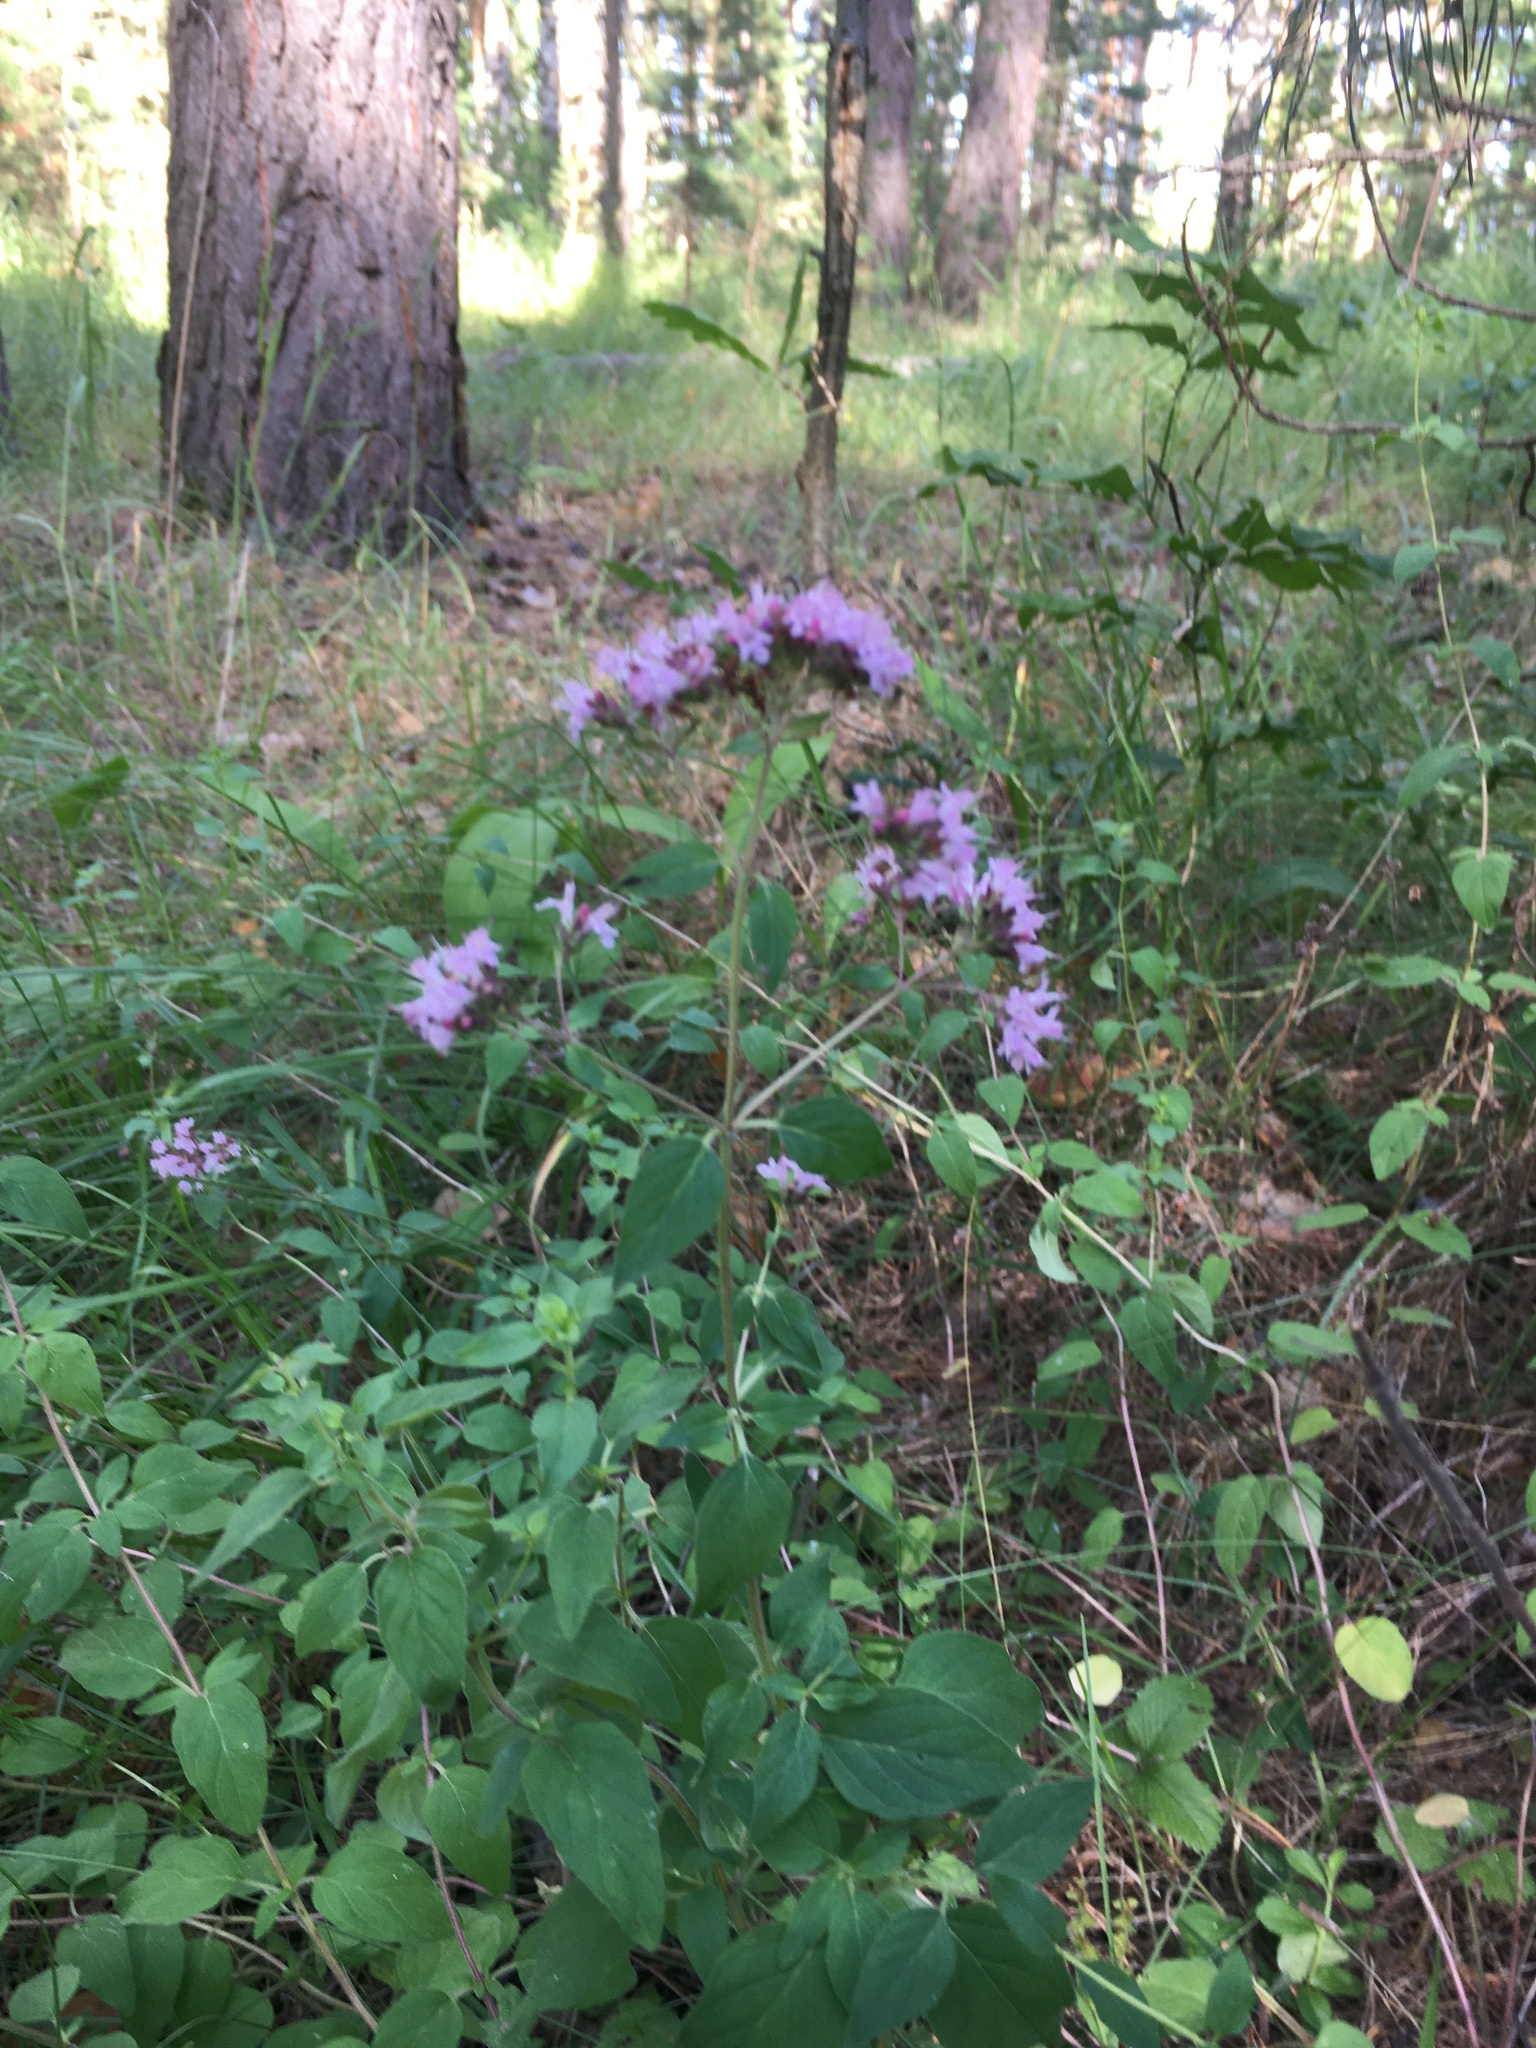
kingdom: Plantae
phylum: Tracheophyta
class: Magnoliopsida
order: Lamiales
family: Lamiaceae
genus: Origanum
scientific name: Origanum vulgare
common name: Wild marjoram
